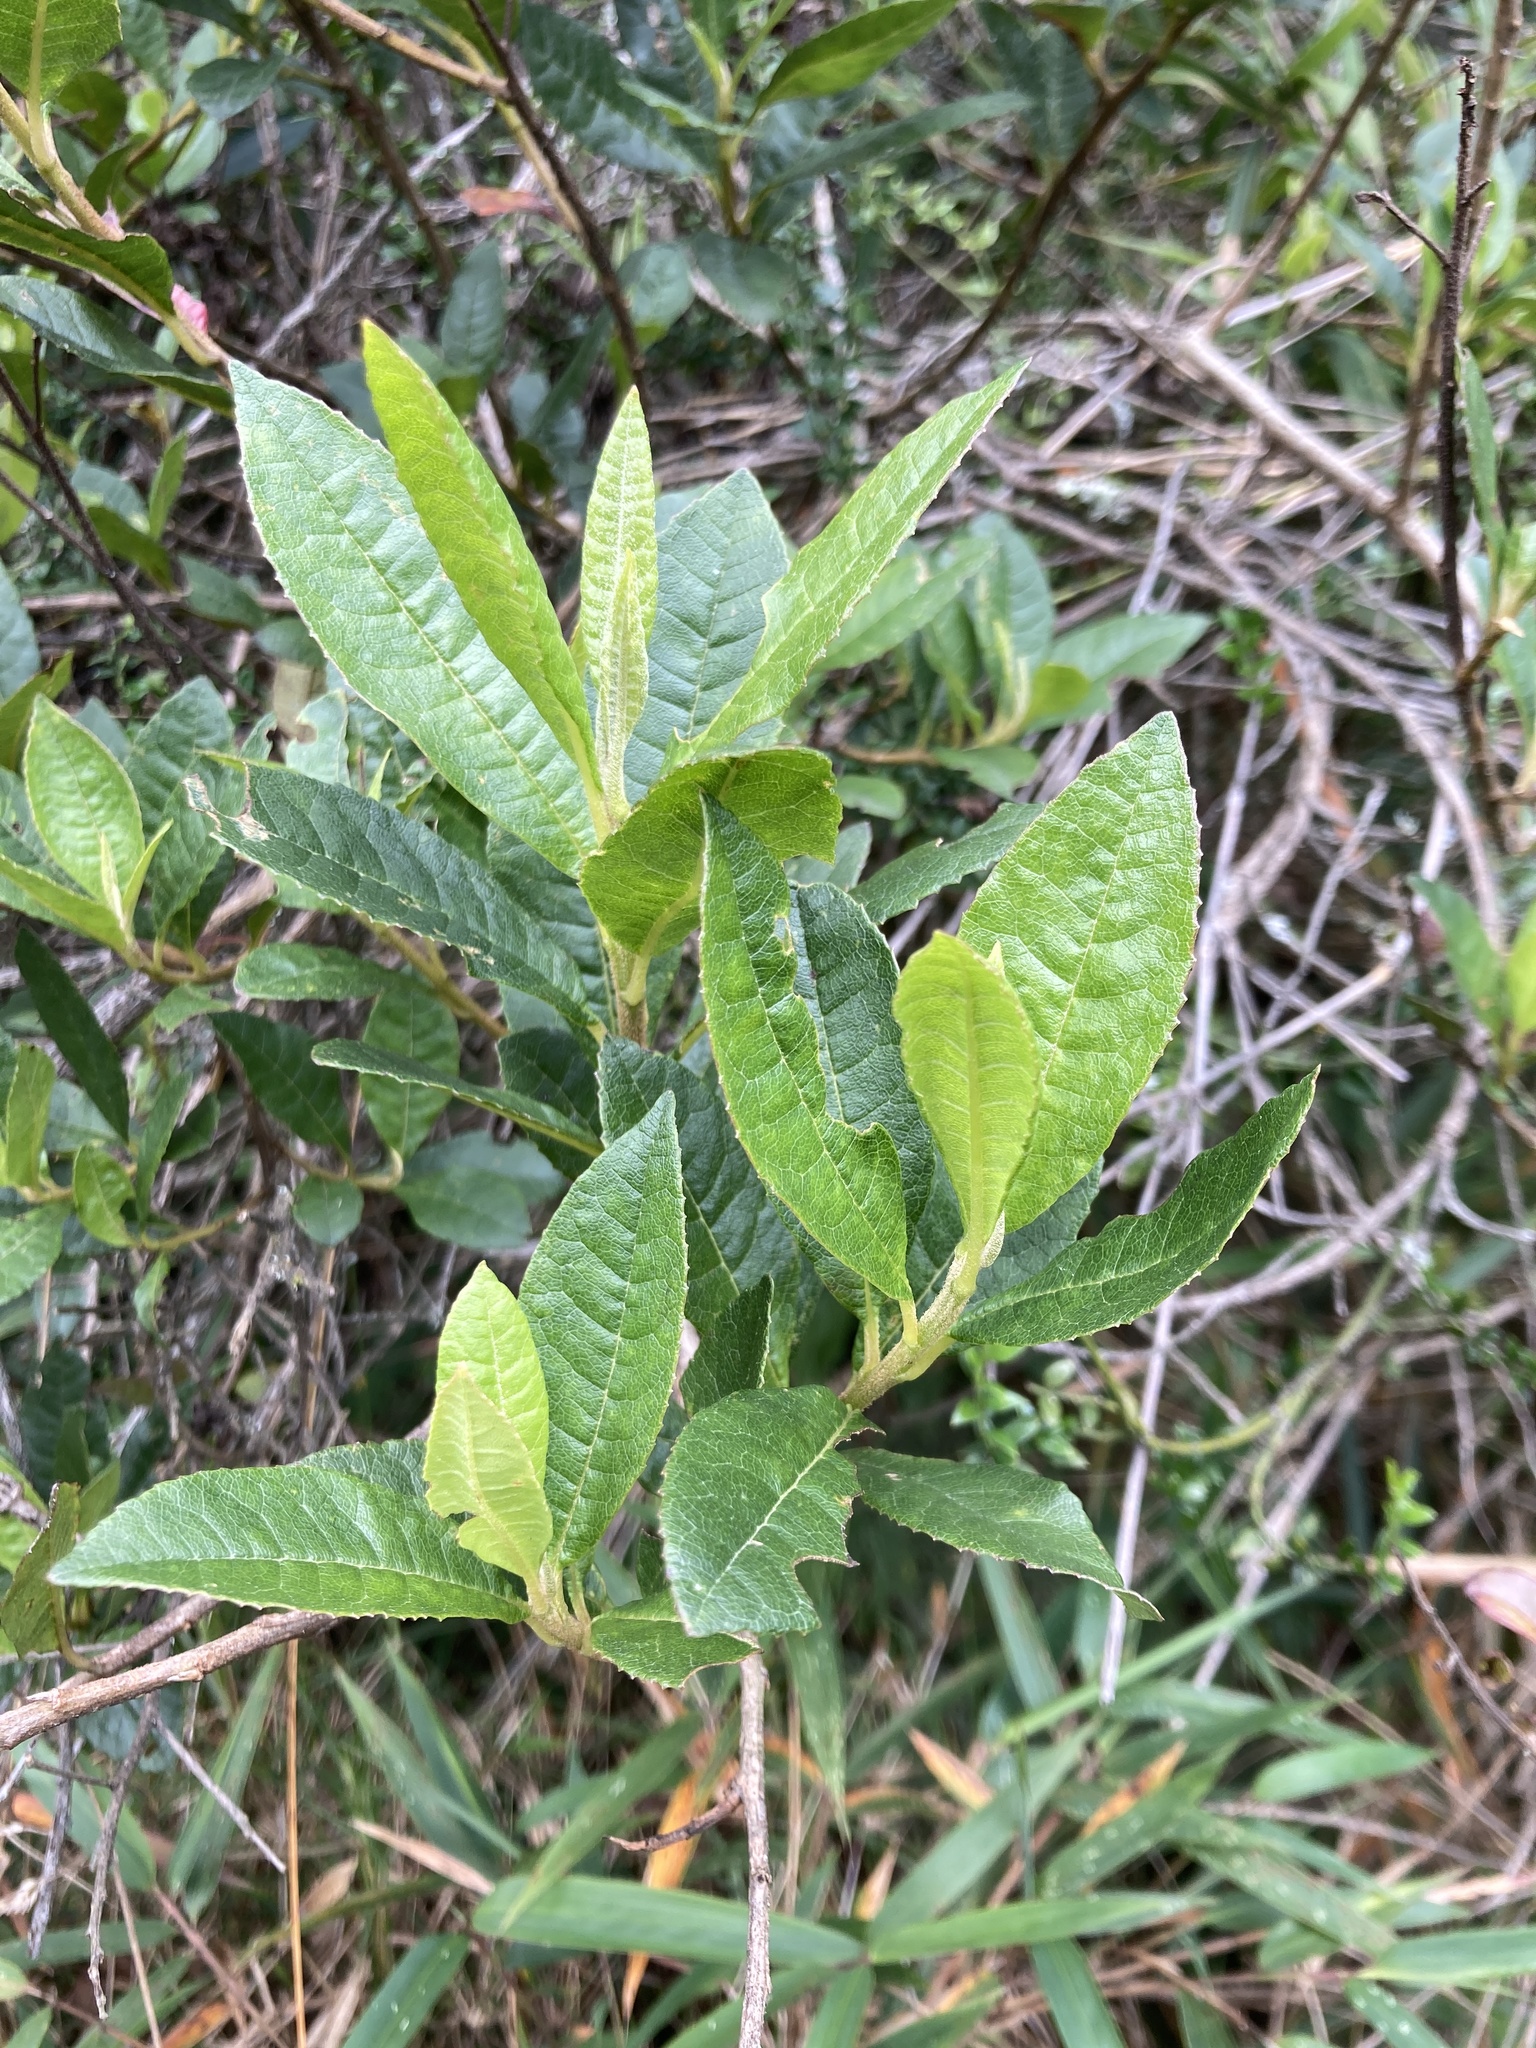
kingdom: Plantae
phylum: Tracheophyta
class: Magnoliopsida
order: Fagales
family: Myricaceae
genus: Morella
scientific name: Morella pubescens
